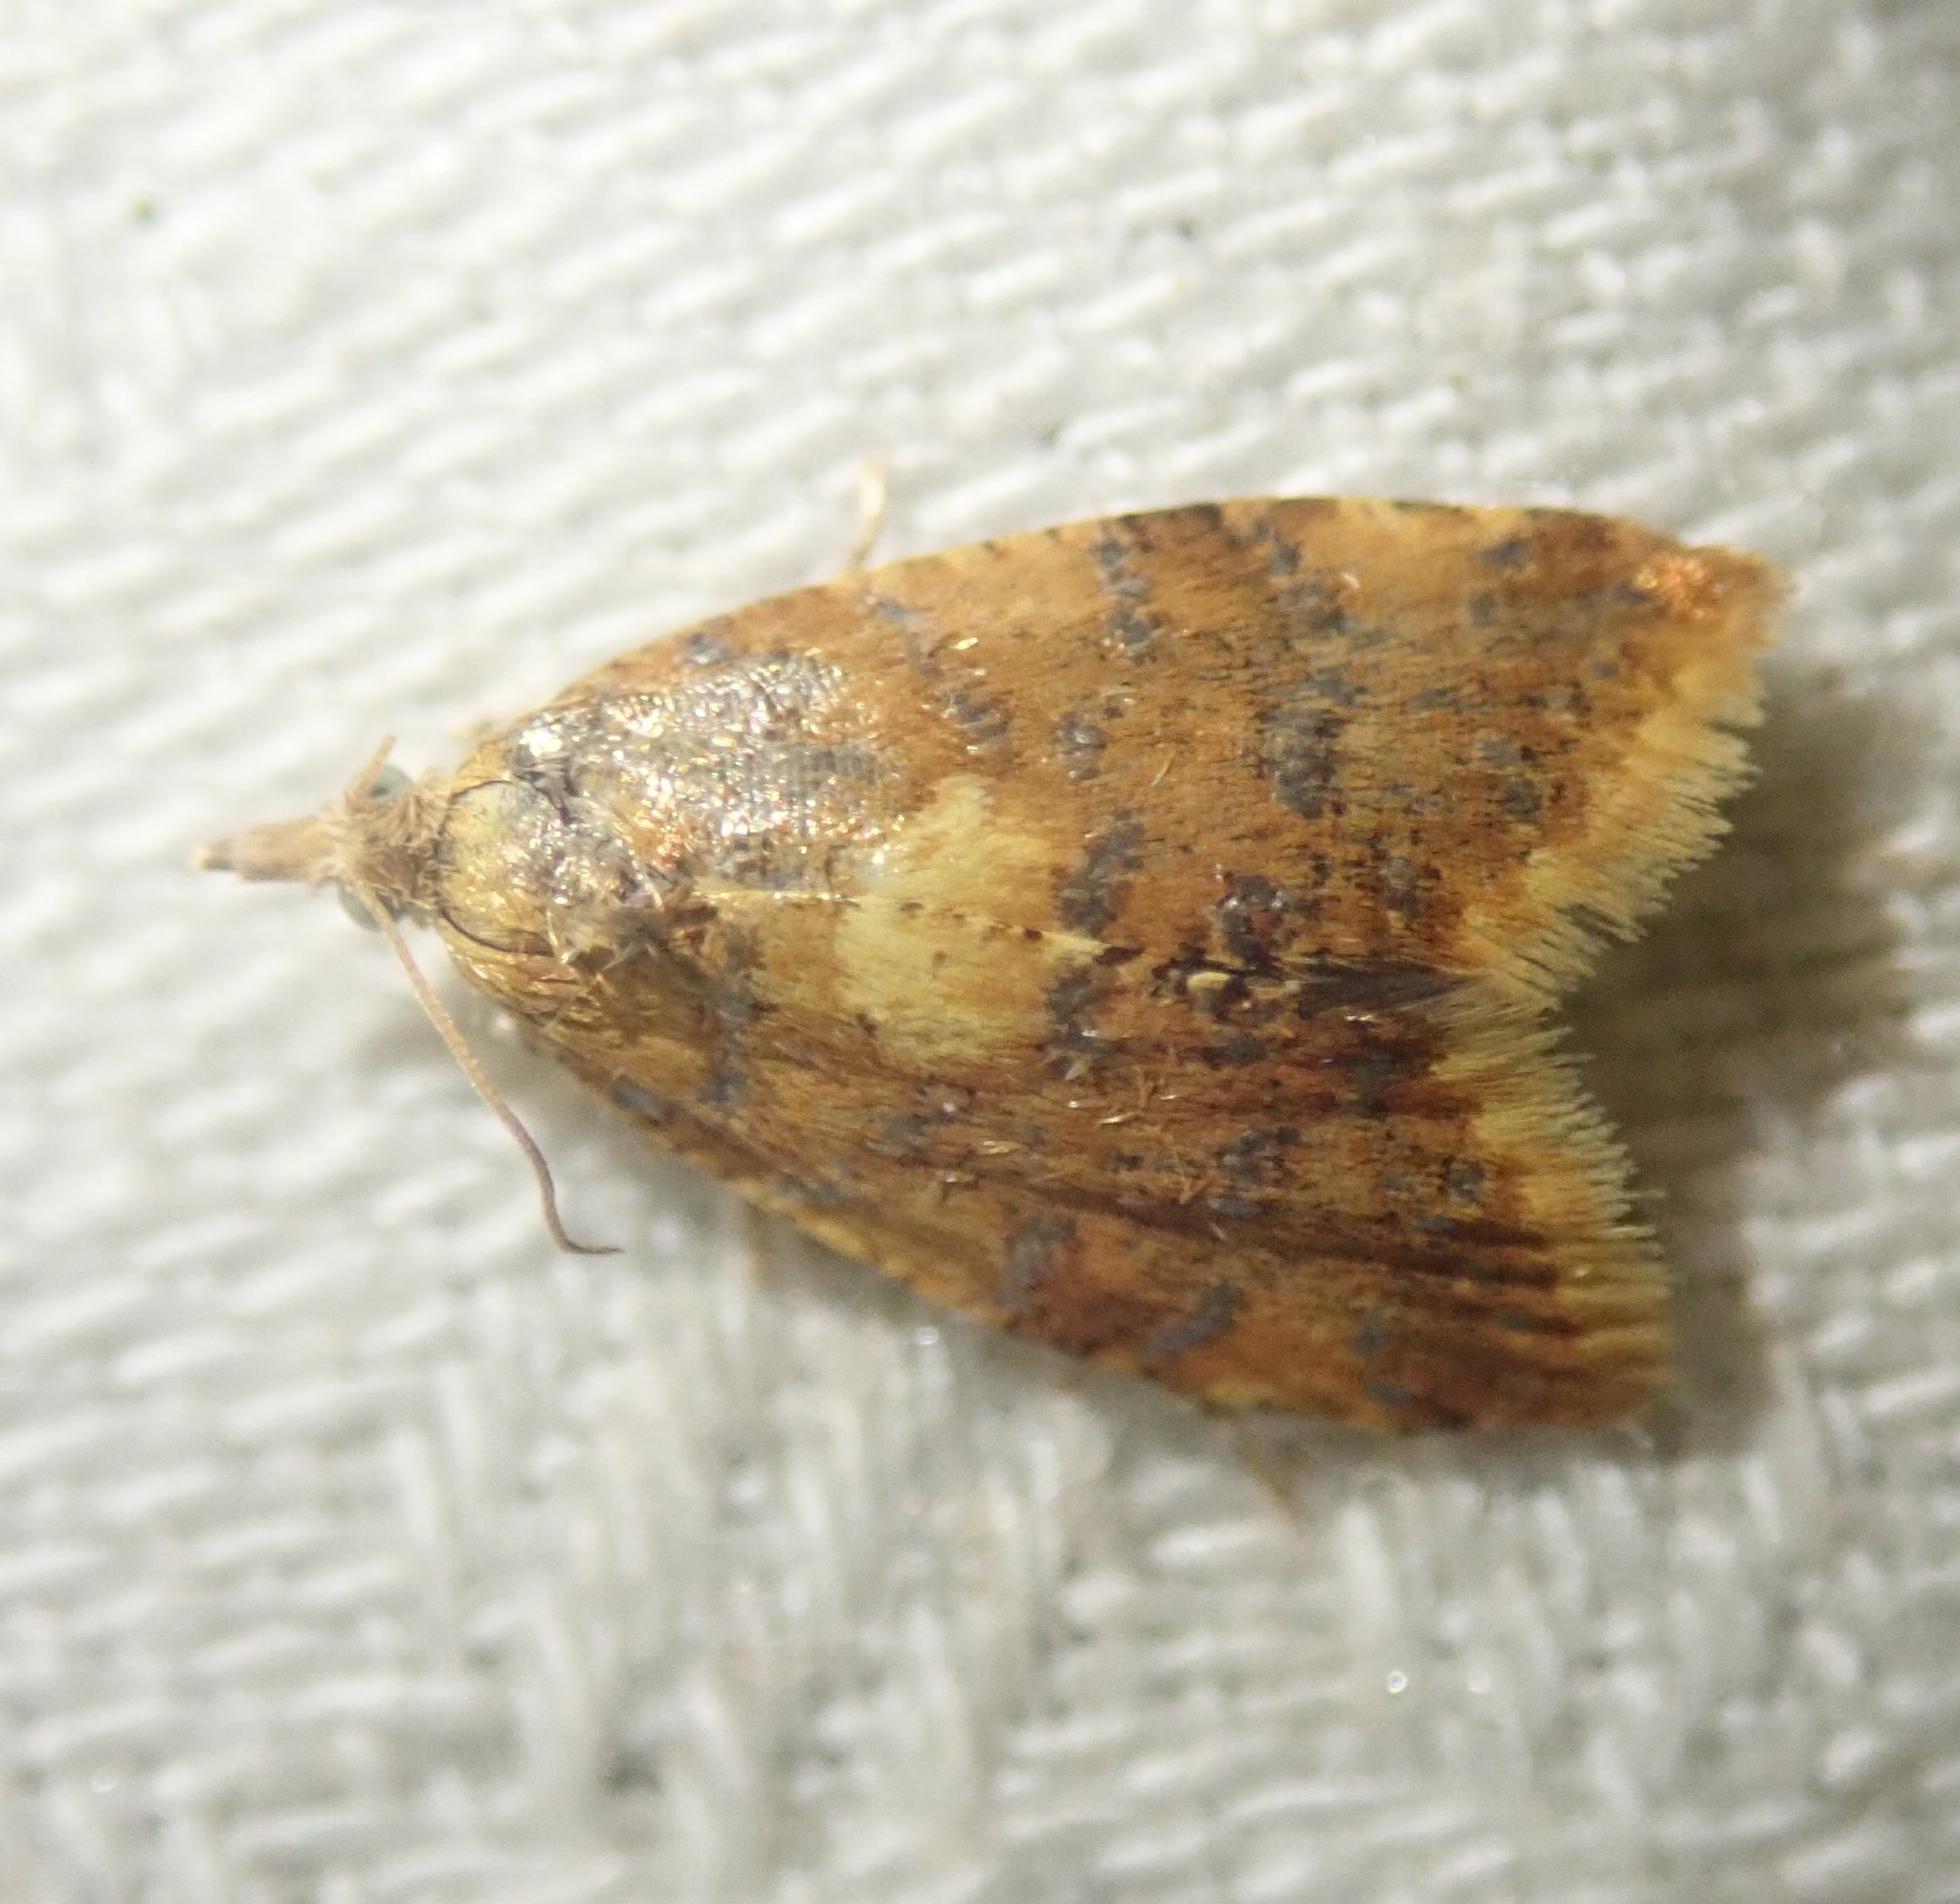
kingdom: Animalia
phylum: Arthropoda
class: Insecta
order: Lepidoptera
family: Tortricidae
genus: Pseudargyrotoza
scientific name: Pseudargyrotoza conwagana
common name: Yellow-spot twist
